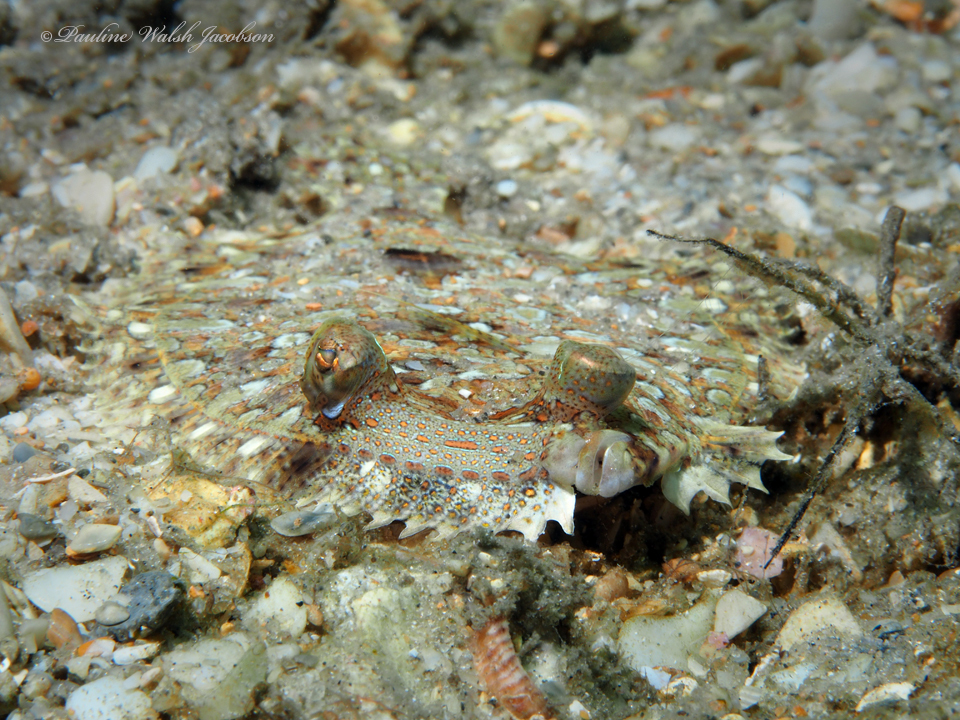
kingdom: Animalia
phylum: Chordata
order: Pleuronectiformes
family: Bothidae
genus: Bothus
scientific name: Bothus ocellatus
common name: Eyed flounder
